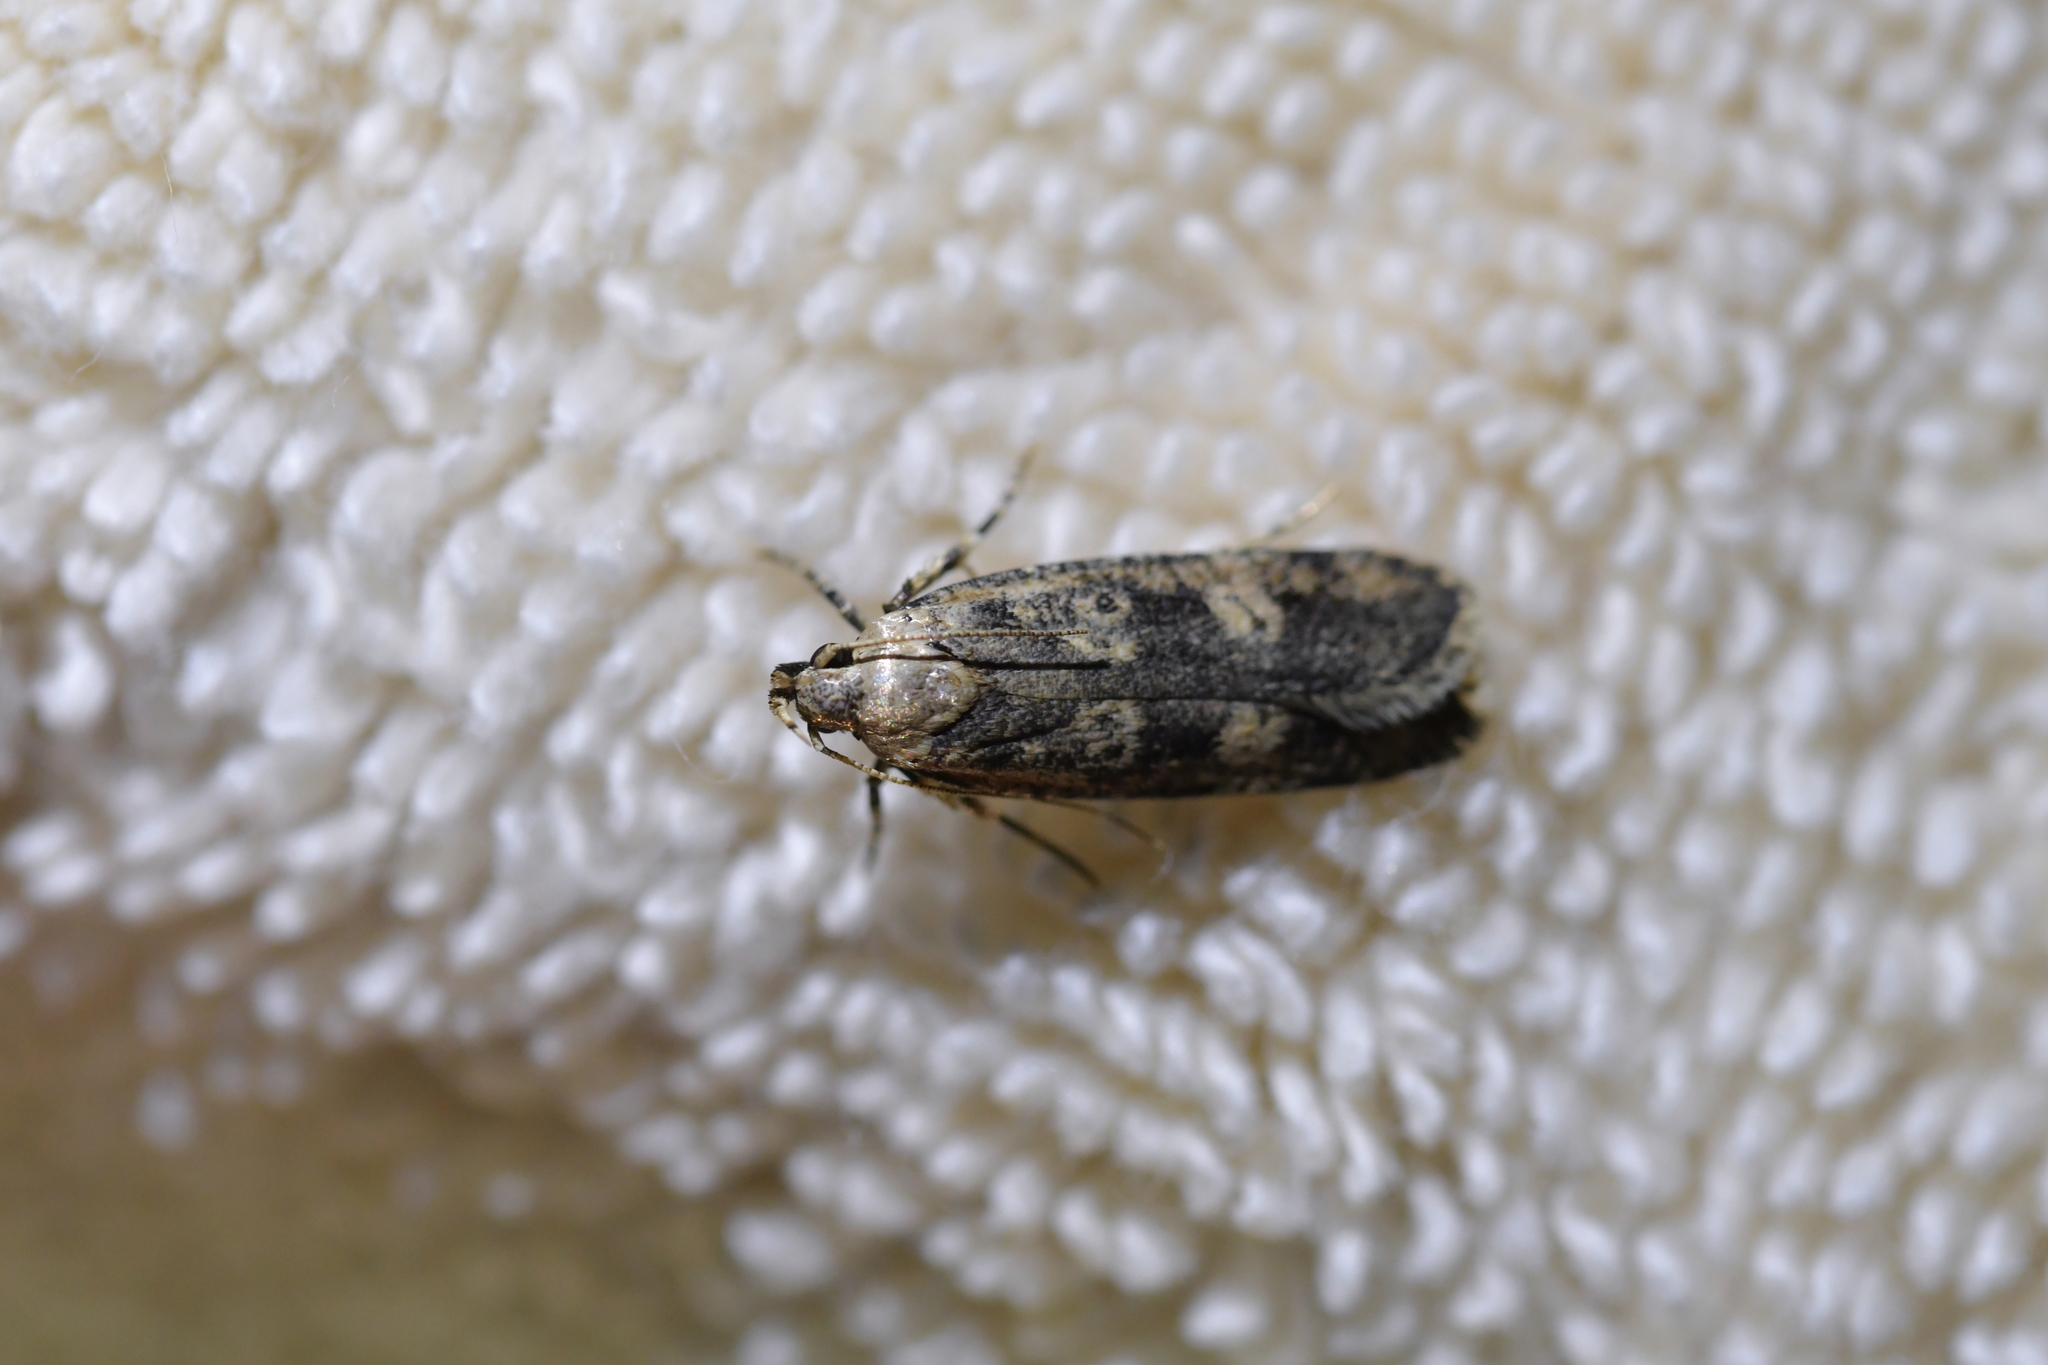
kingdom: Animalia
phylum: Arthropoda
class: Insecta
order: Lepidoptera
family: Gelechiidae
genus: Anisoplaca
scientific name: Anisoplaca cosmia
